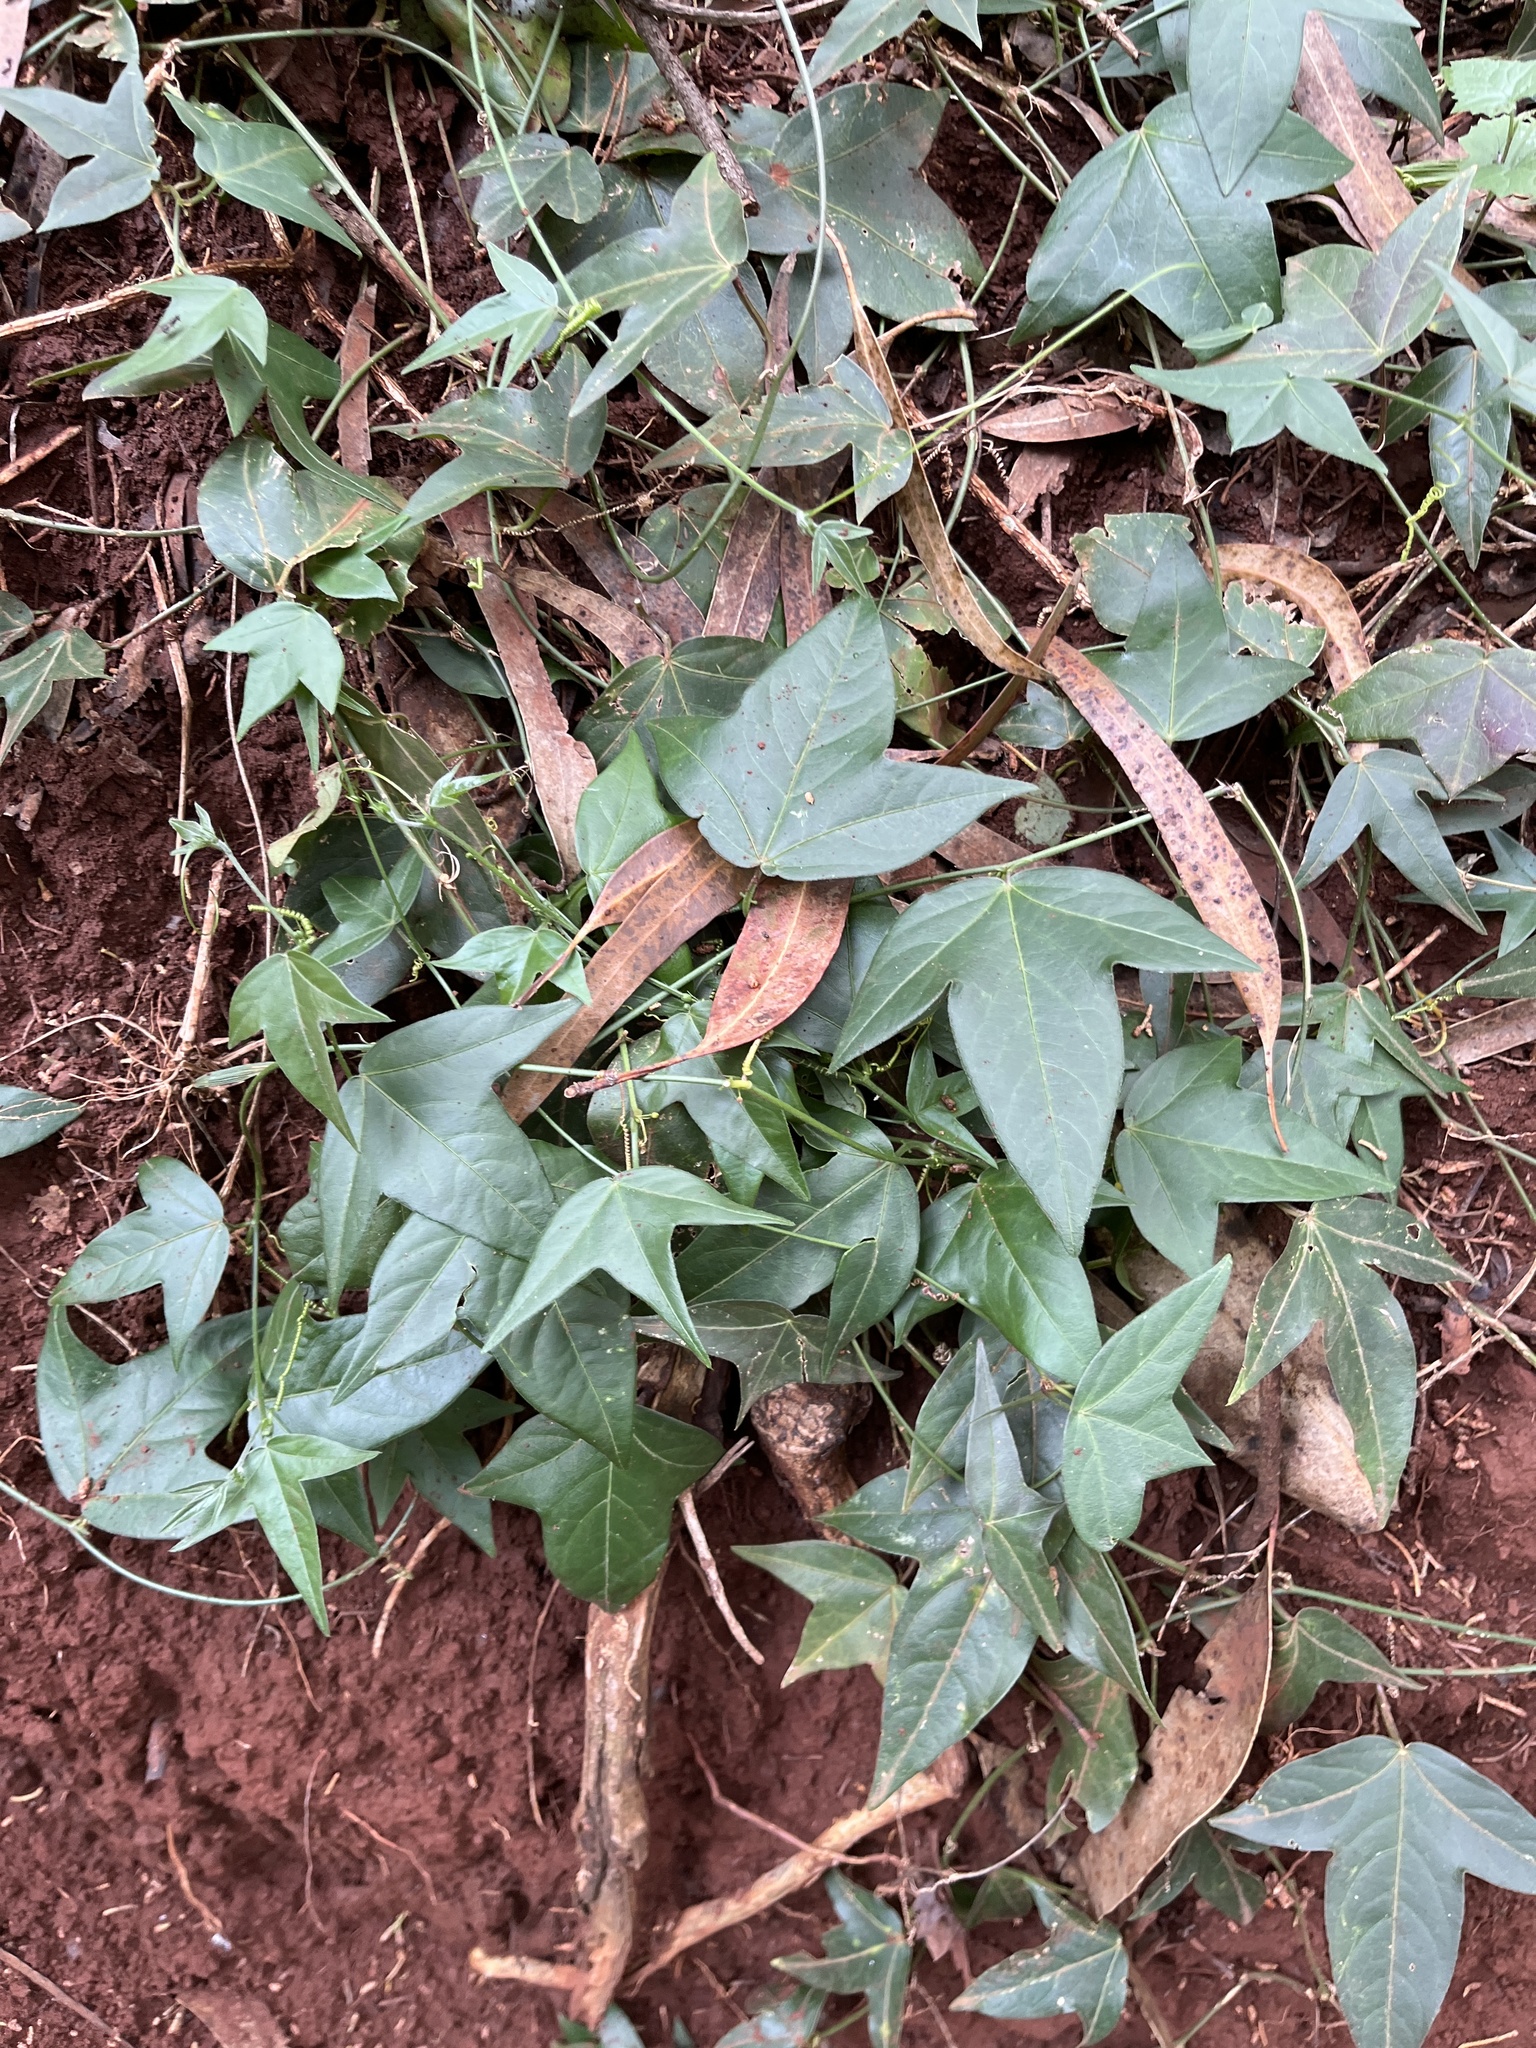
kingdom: Plantae
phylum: Tracheophyta
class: Magnoliopsida
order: Malpighiales
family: Passifloraceae
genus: Passiflora
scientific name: Passiflora suberosa
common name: Wild passionfruit
